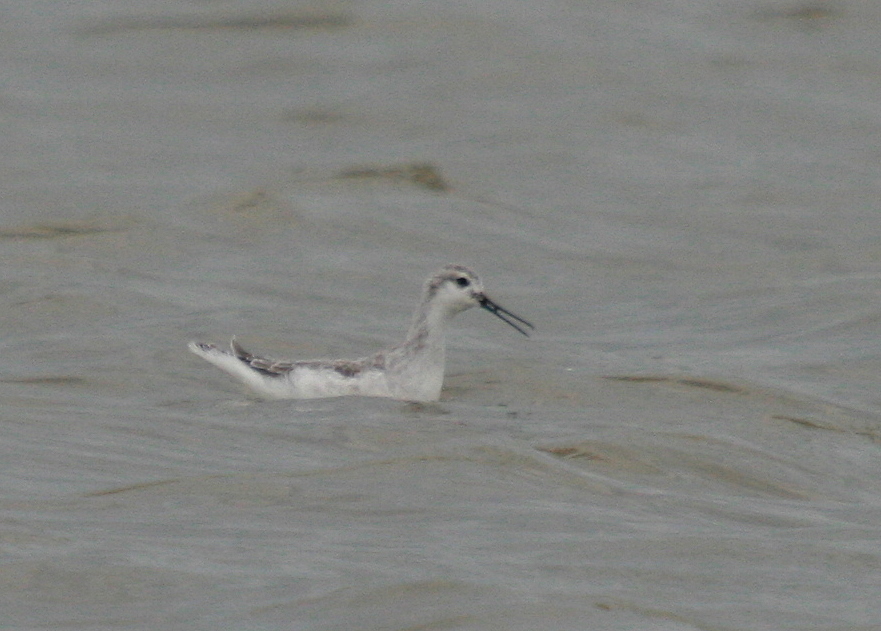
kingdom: Animalia
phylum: Chordata
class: Aves
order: Charadriiformes
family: Scolopacidae
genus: Phalaropus
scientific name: Phalaropus tricolor
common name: Wilson's phalarope
